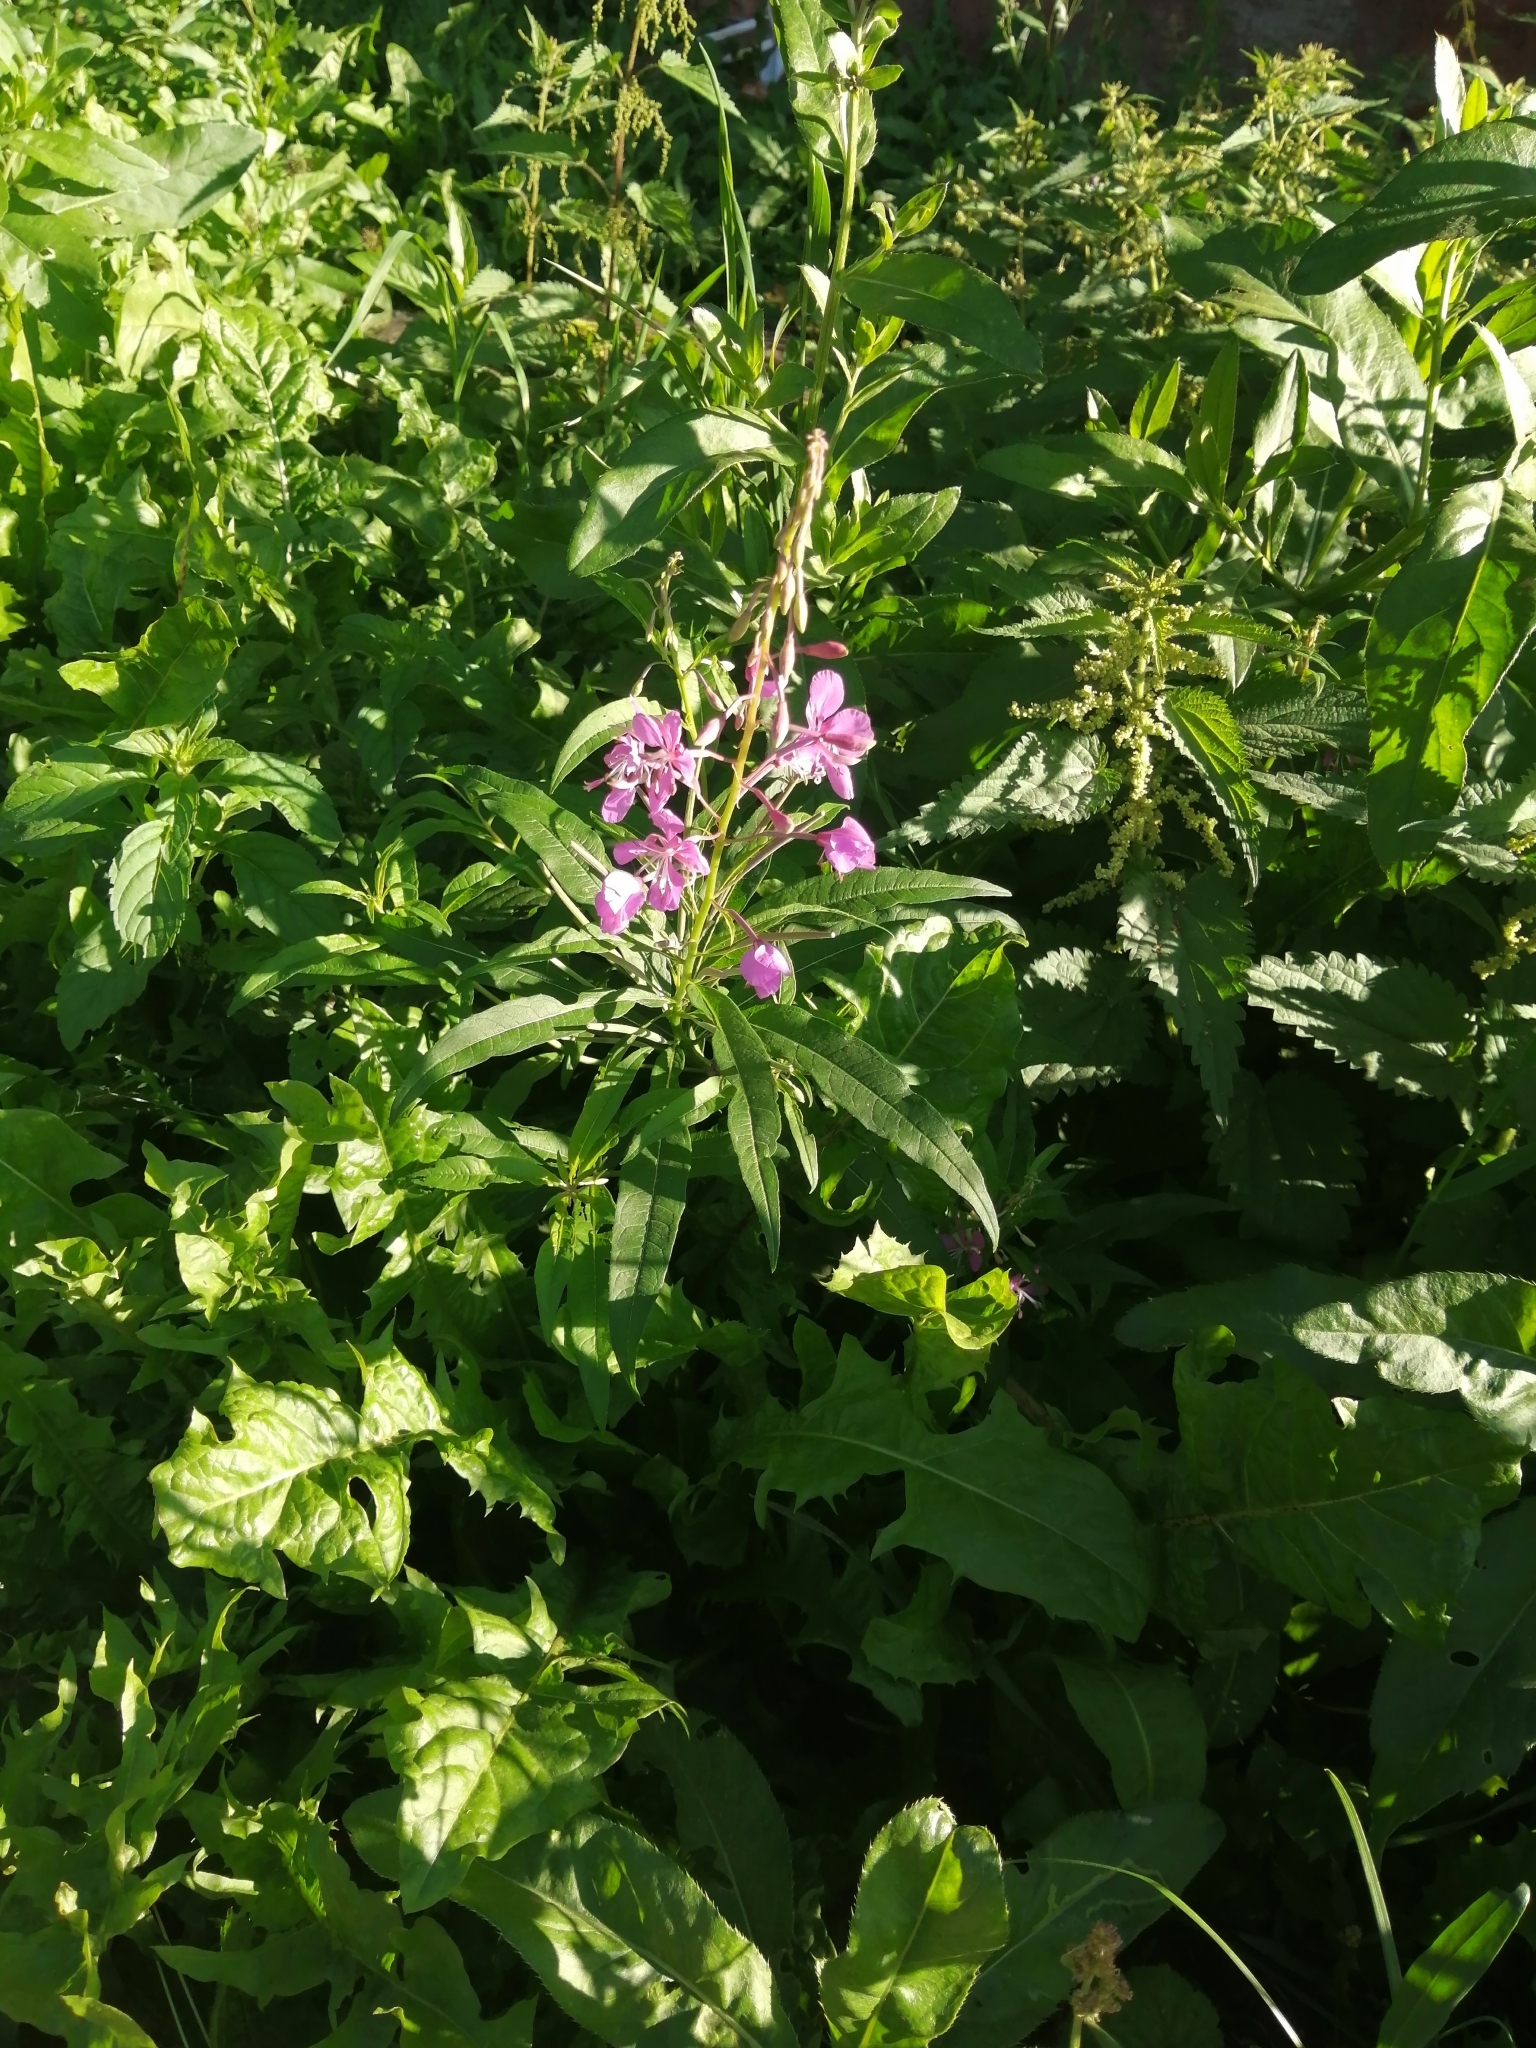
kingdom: Plantae
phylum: Tracheophyta
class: Magnoliopsida
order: Myrtales
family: Onagraceae
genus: Chamaenerion
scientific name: Chamaenerion angustifolium
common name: Fireweed
